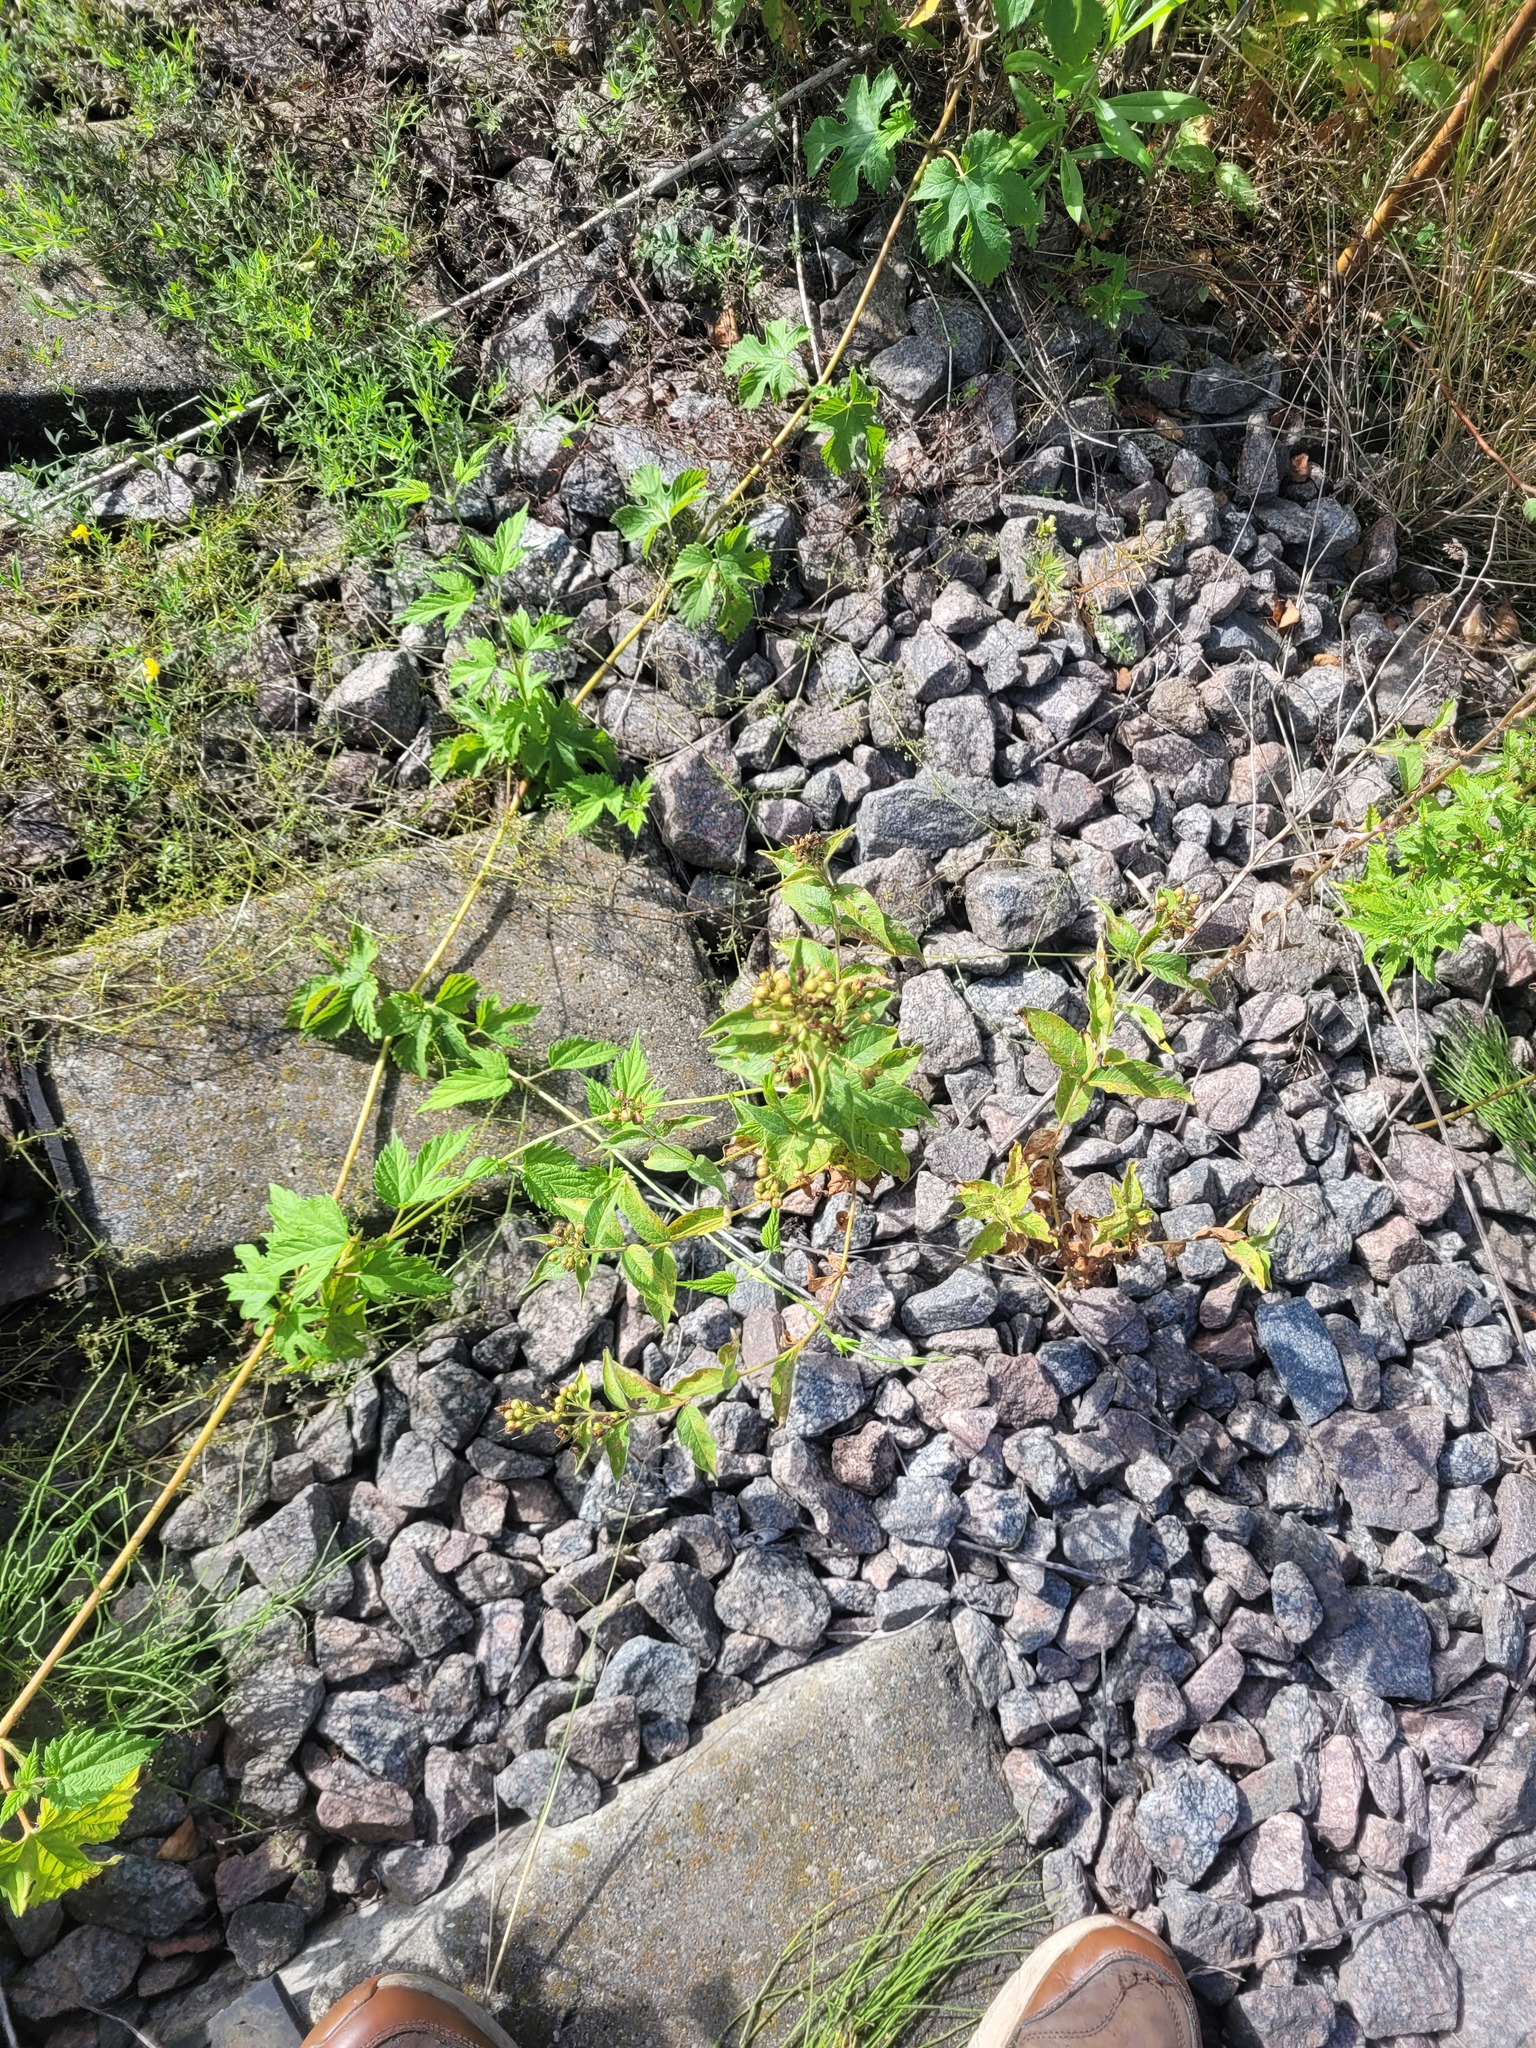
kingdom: Plantae
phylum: Tracheophyta
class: Magnoliopsida
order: Ericales
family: Primulaceae
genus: Lysimachia
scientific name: Lysimachia vulgaris
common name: Yellow loosestrife
